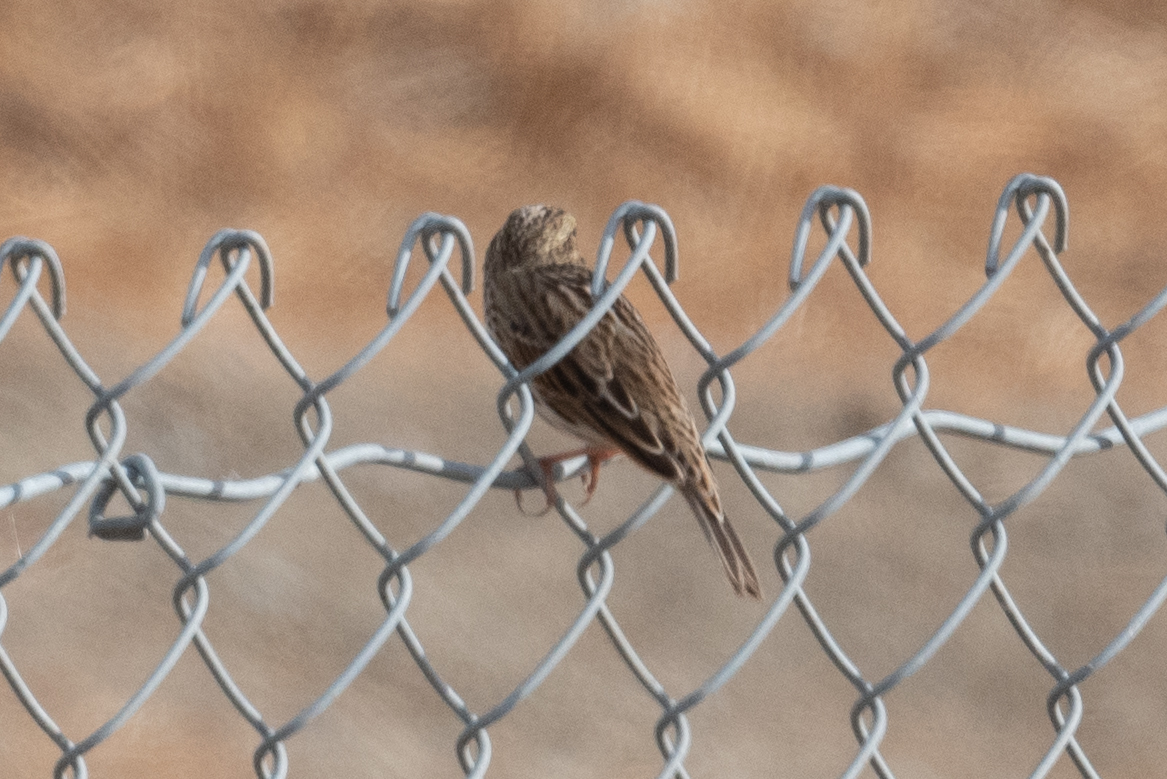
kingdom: Animalia
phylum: Chordata
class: Aves
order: Passeriformes
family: Passerellidae
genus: Passerculus
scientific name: Passerculus sandwichensis
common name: Savannah sparrow
